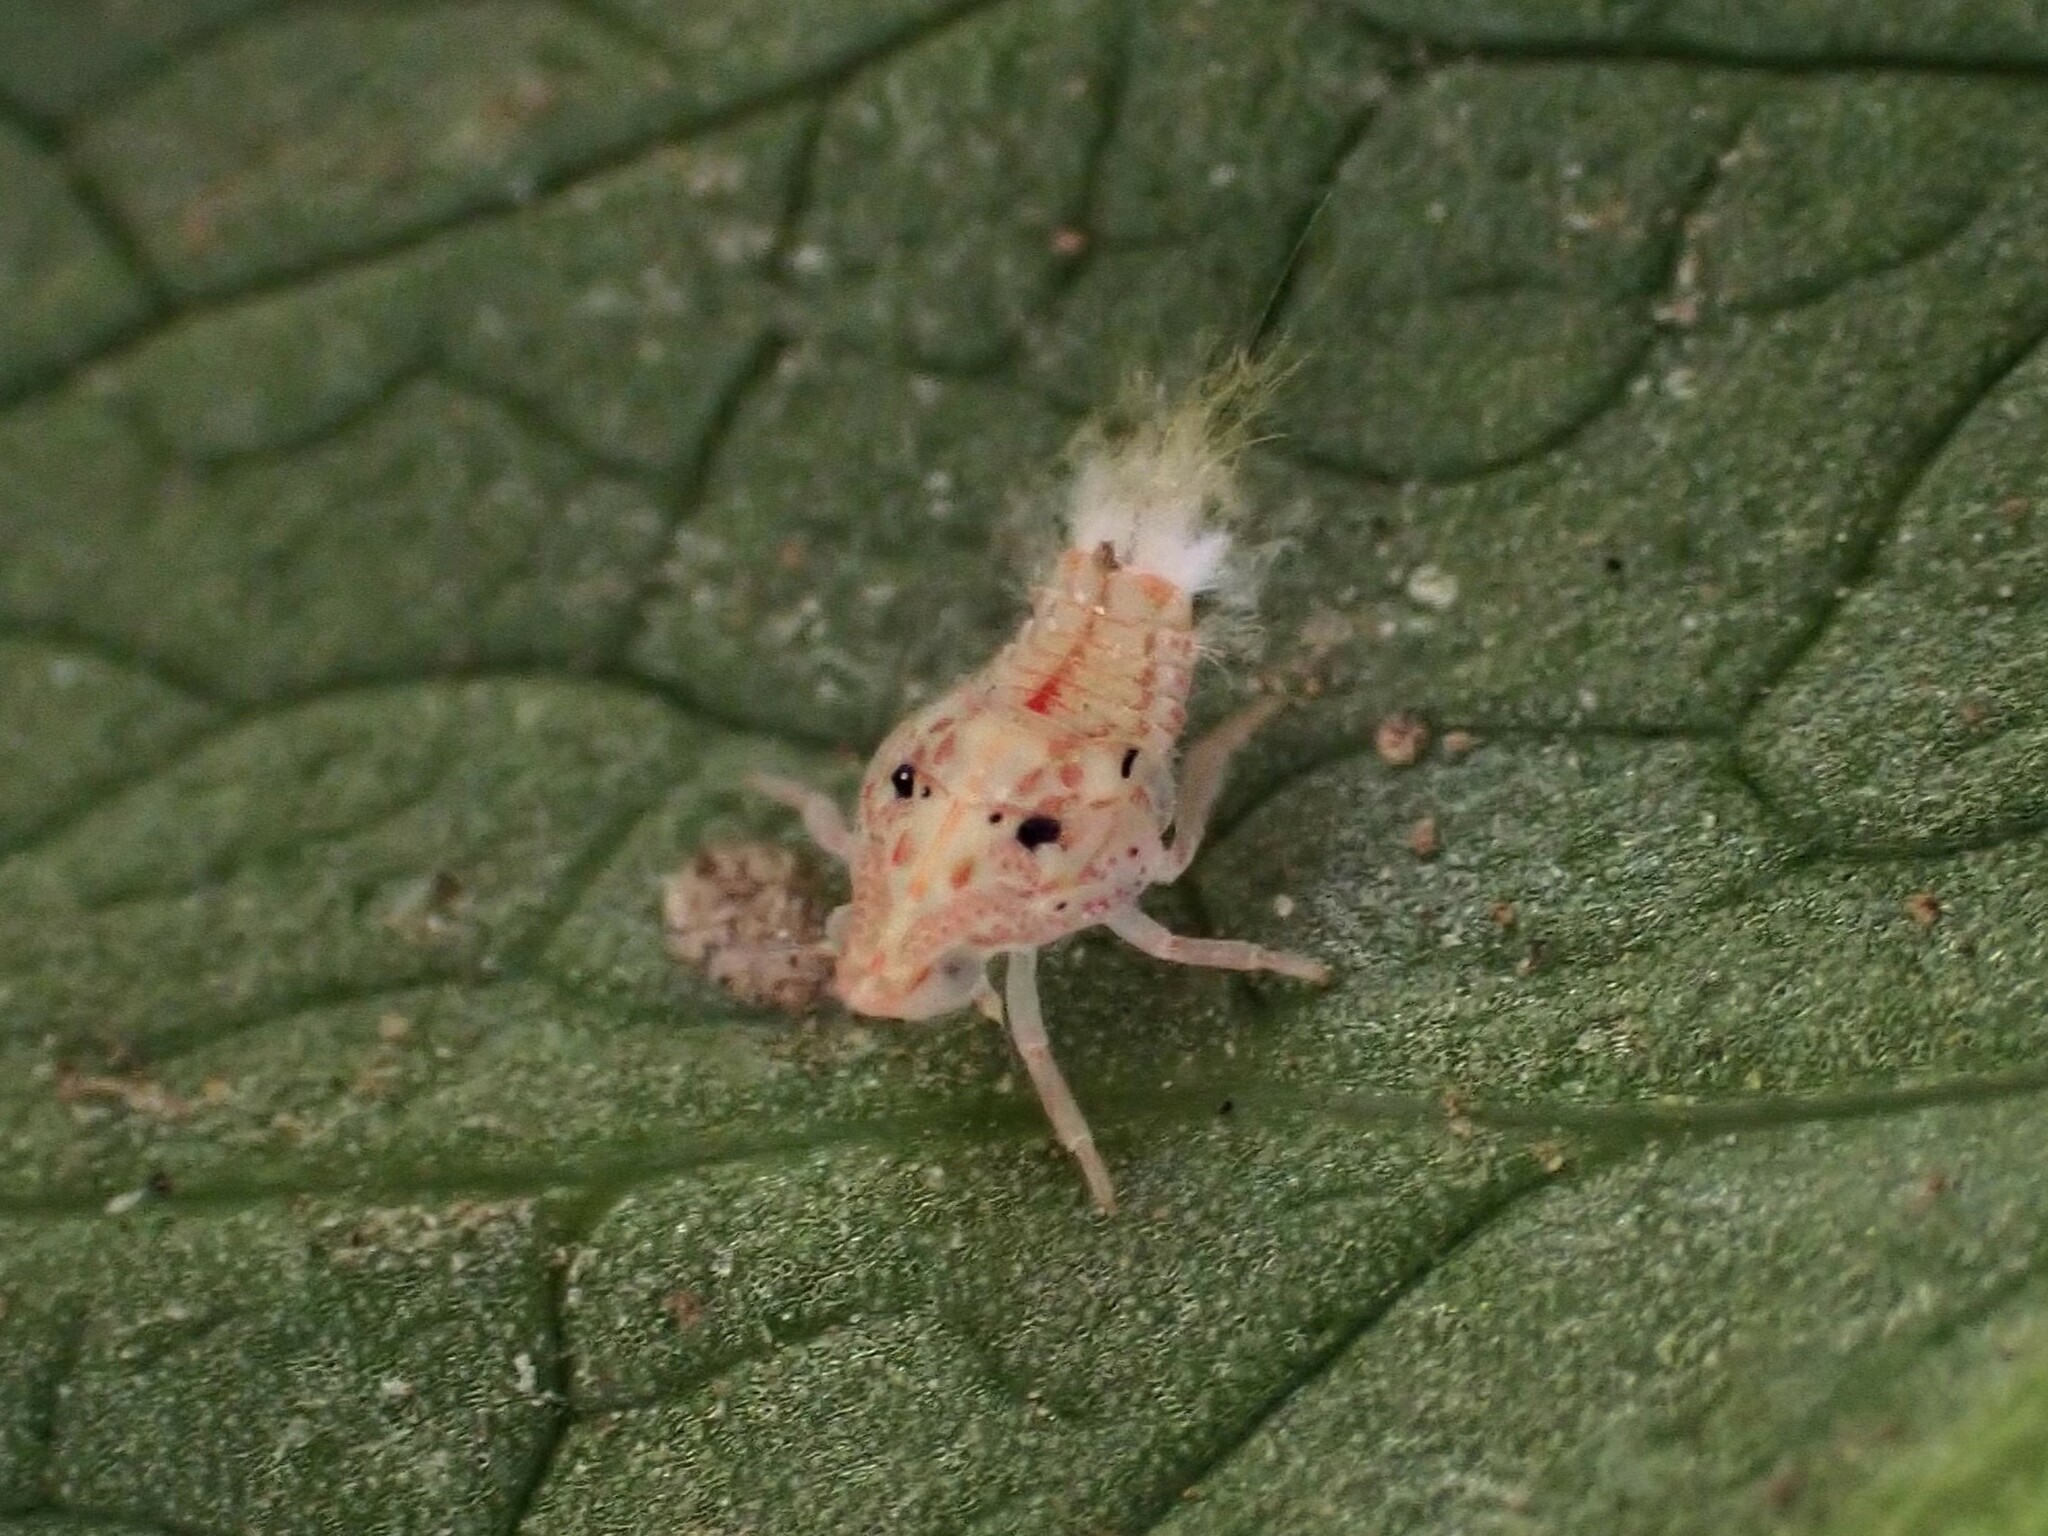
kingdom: Animalia
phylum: Arthropoda
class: Insecta
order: Hemiptera
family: Flatidae
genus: Siphanta
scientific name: Siphanta acuta
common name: Torpedo bug
